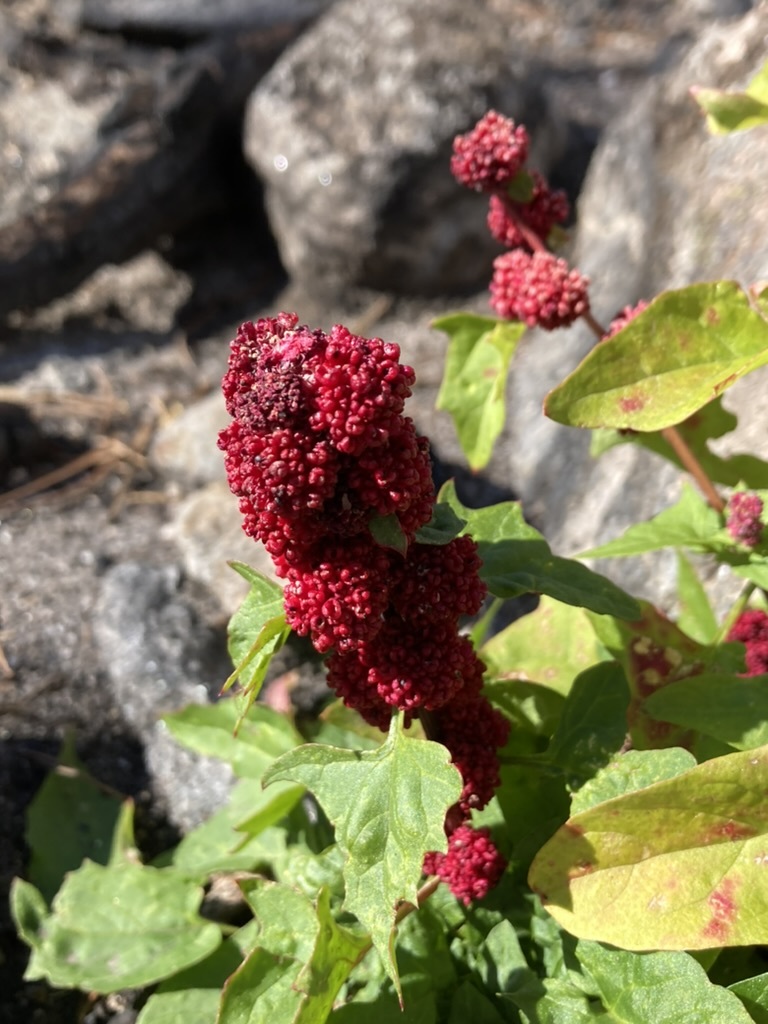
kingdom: Plantae
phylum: Tracheophyta
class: Magnoliopsida
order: Caryophyllales
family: Amaranthaceae
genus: Blitum
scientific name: Blitum capitatum
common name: Strawberry-blight
